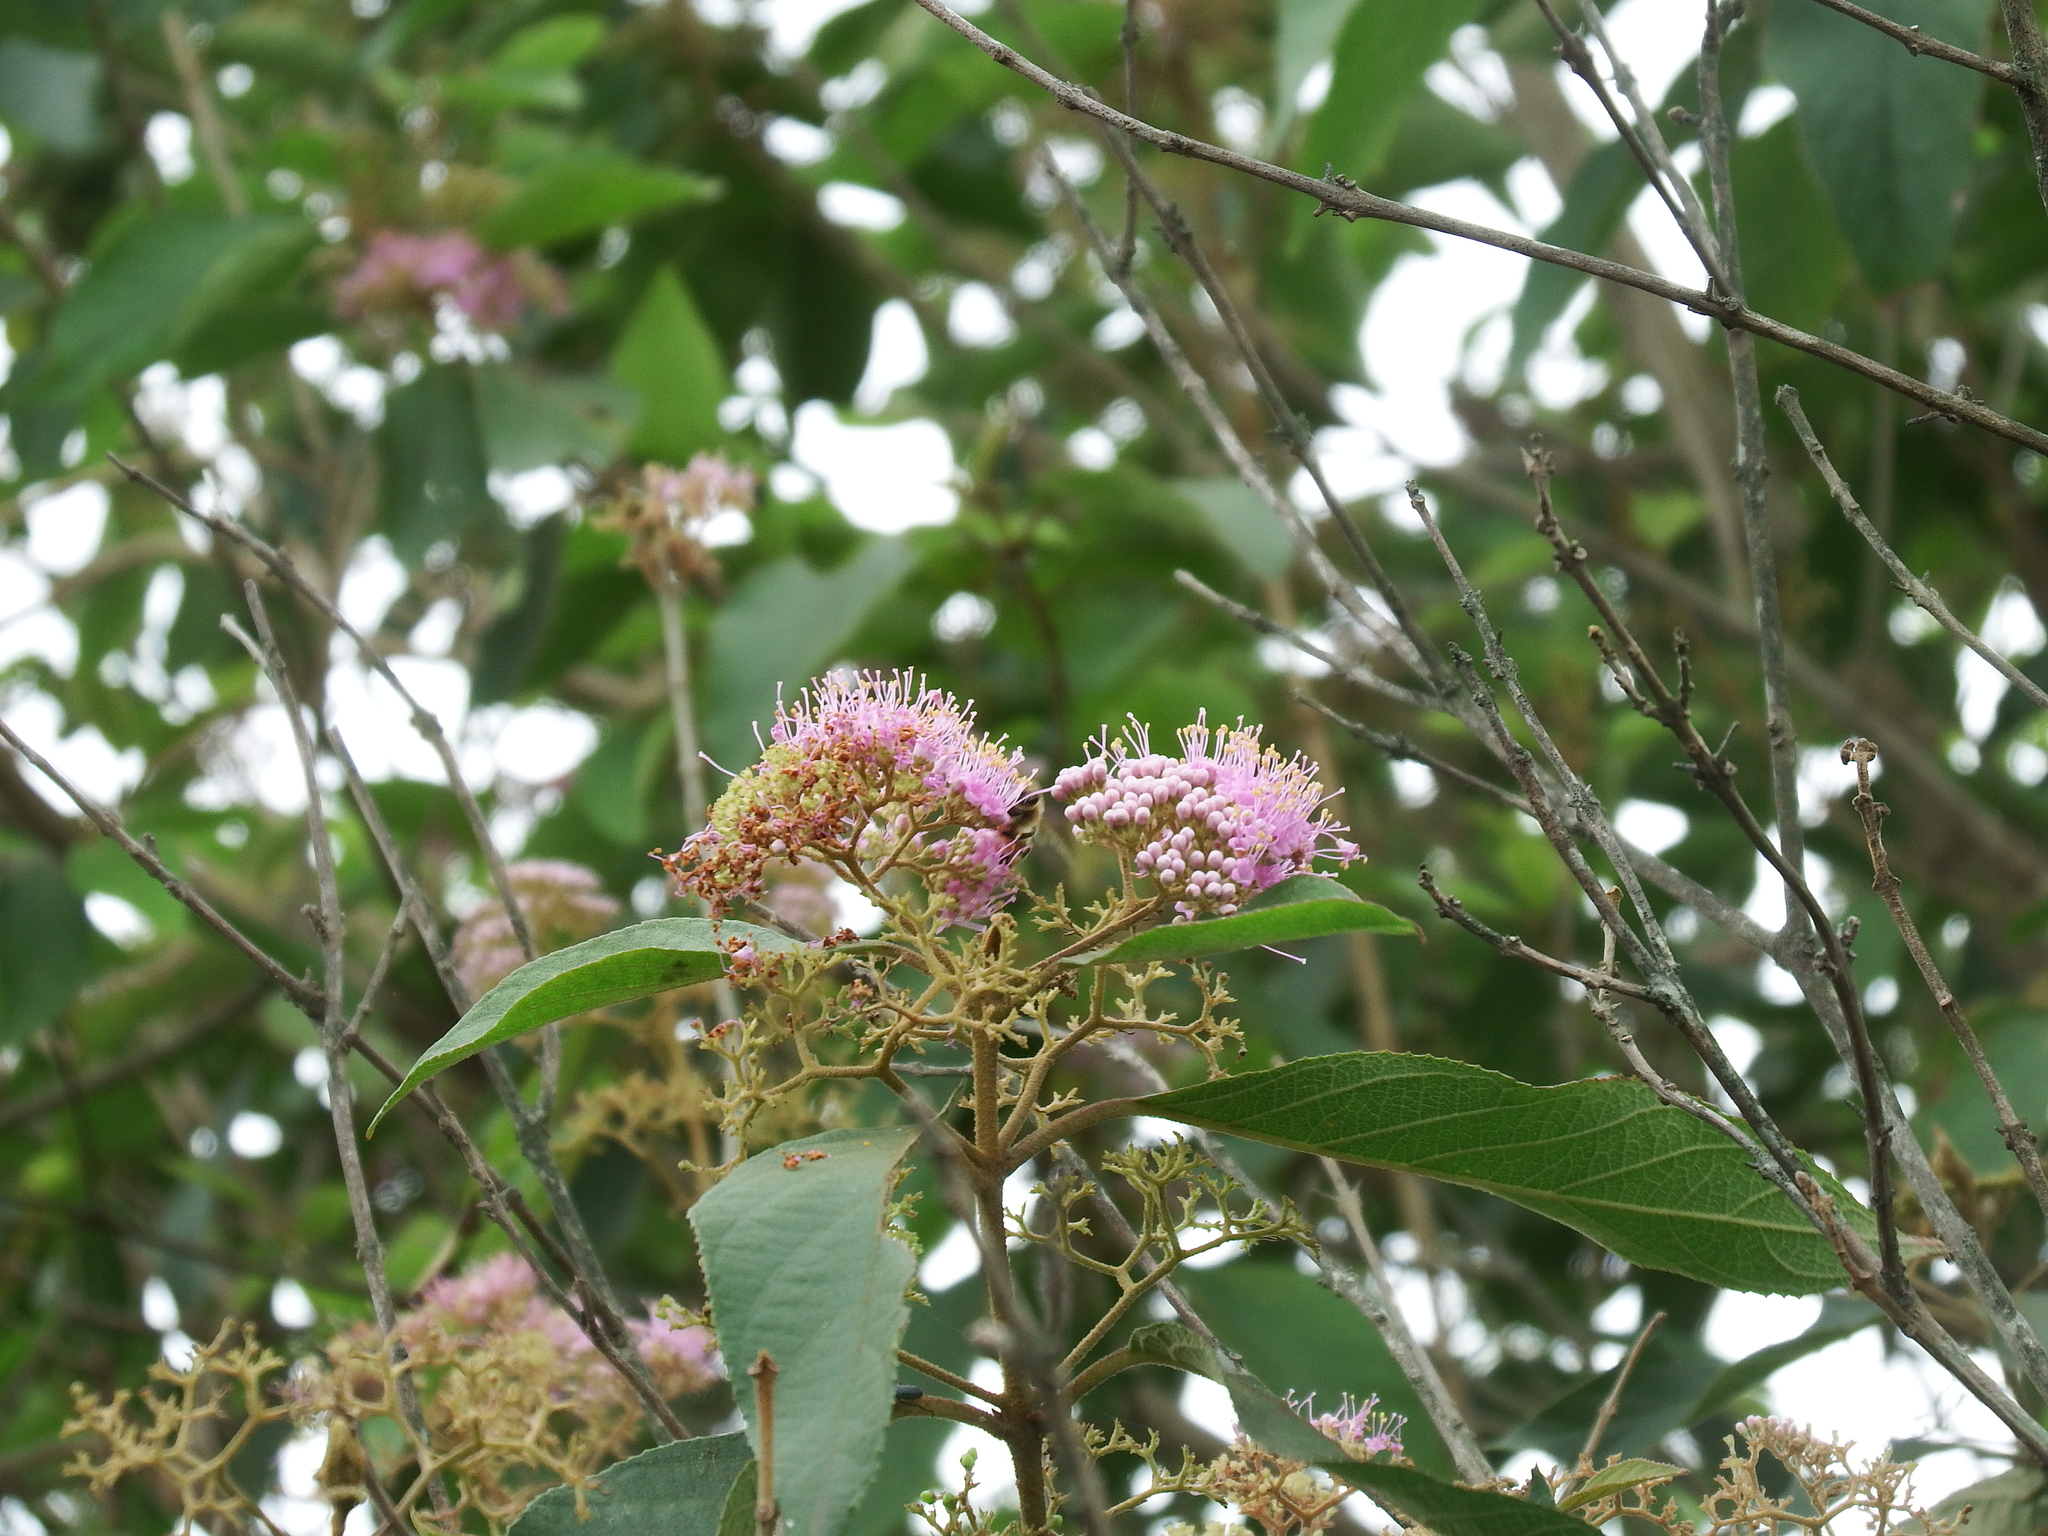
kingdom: Plantae
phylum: Tracheophyta
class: Magnoliopsida
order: Lamiales
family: Lamiaceae
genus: Callicarpa
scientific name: Callicarpa pedunculata
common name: Velvetleaf
